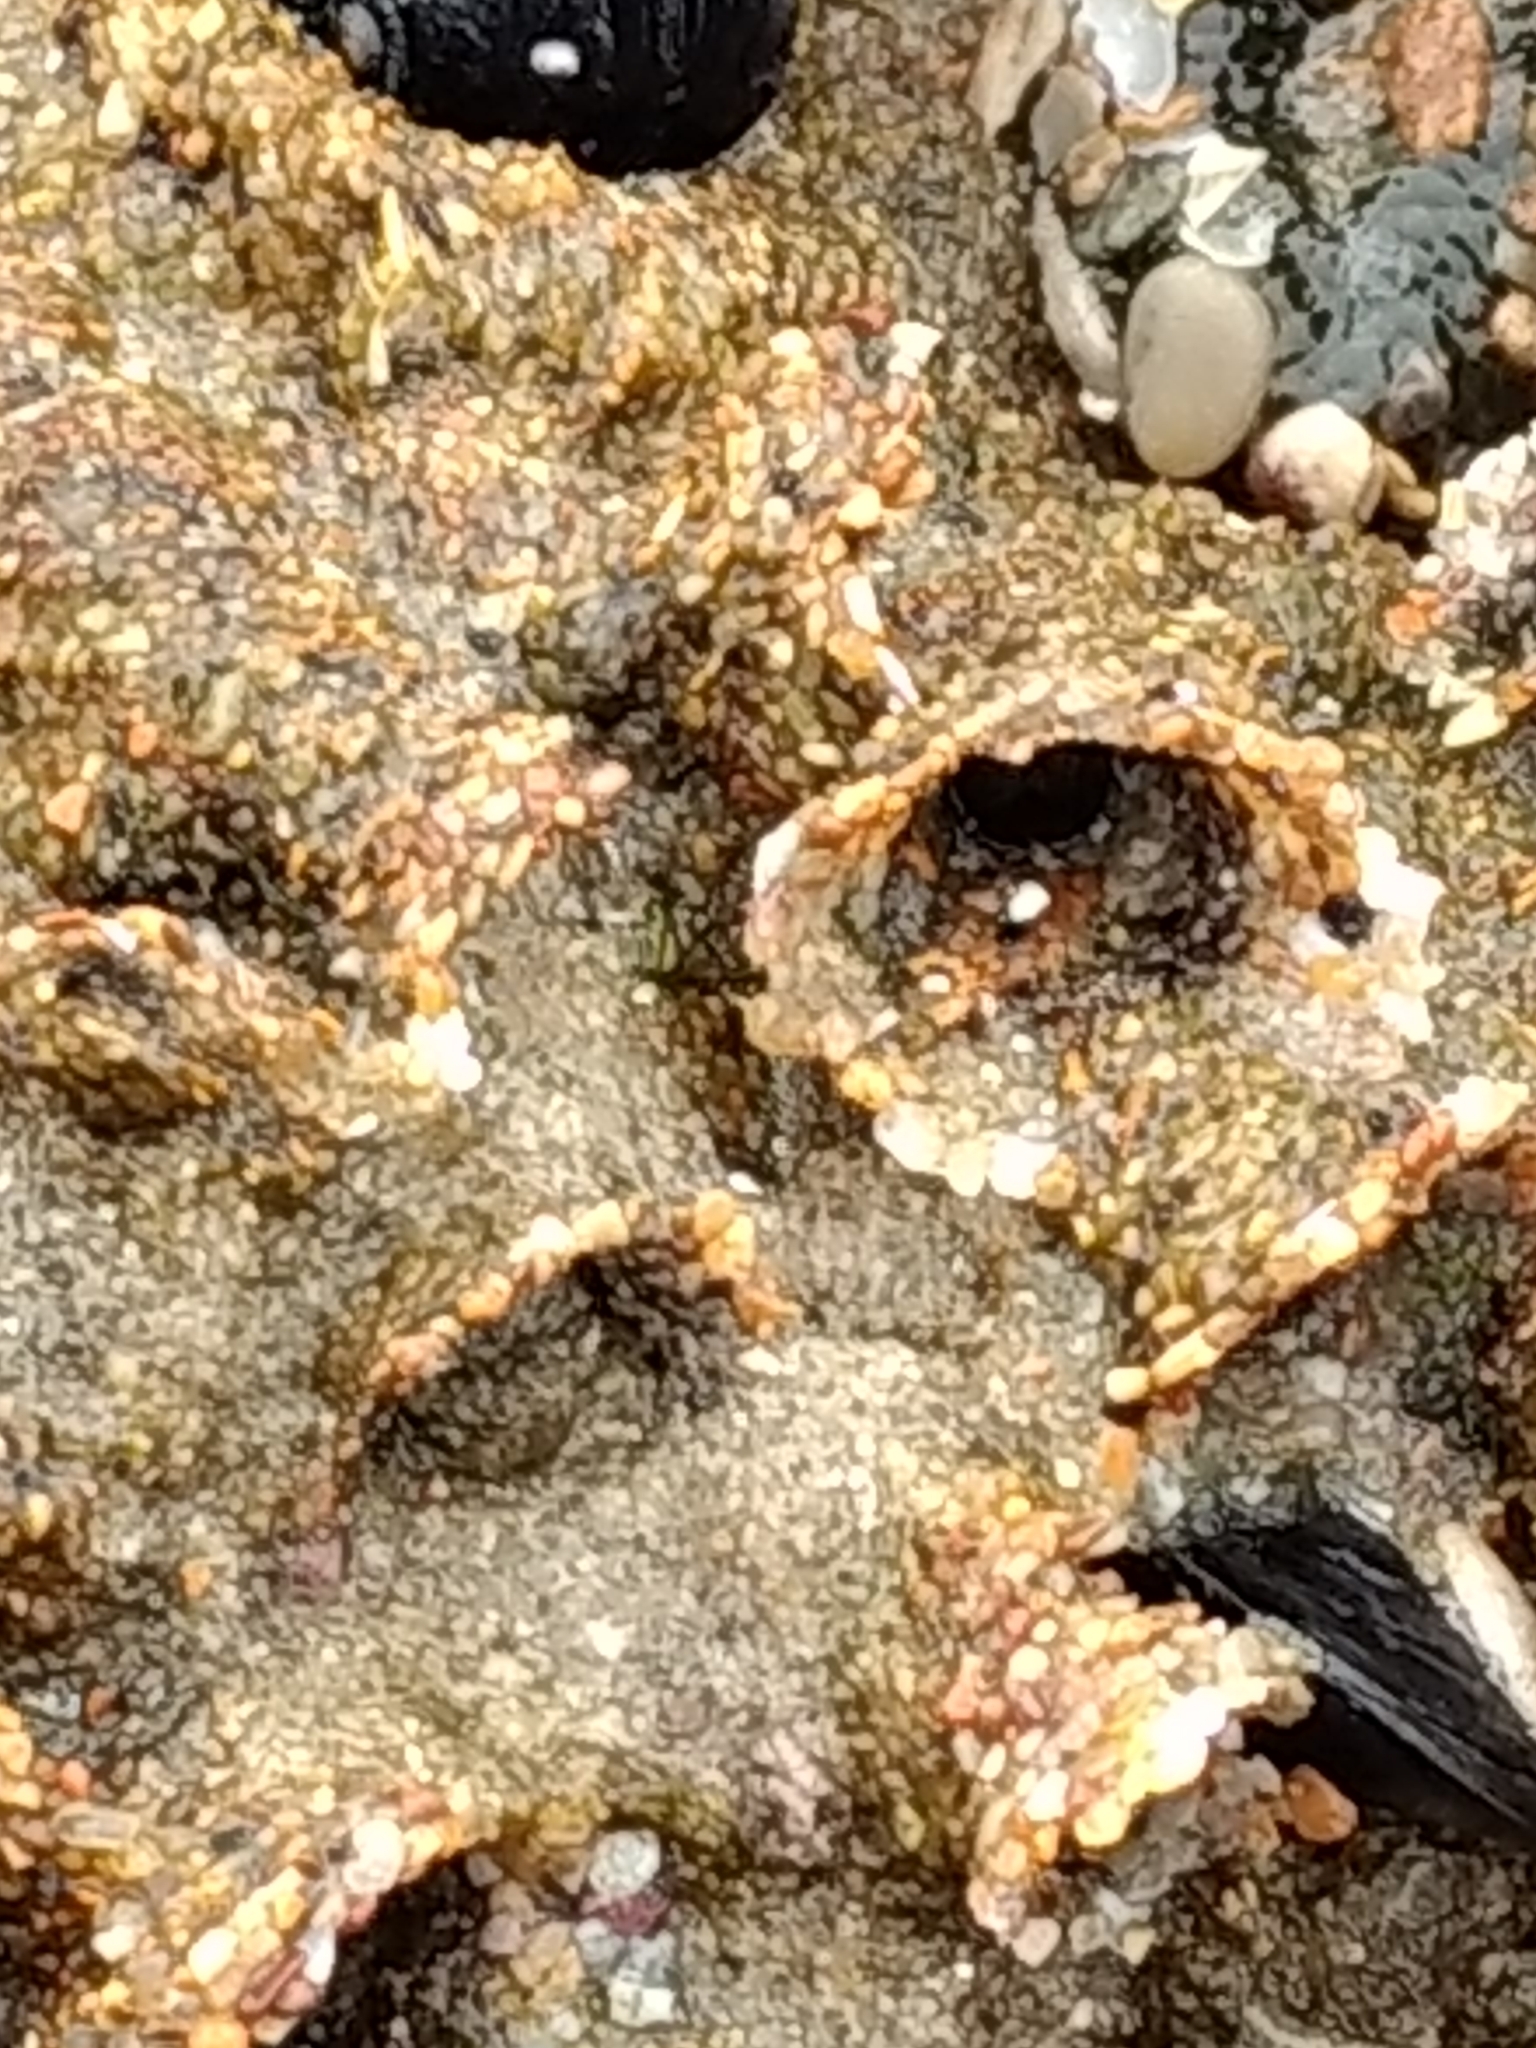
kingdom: Animalia
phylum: Annelida
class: Polychaeta
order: Sabellida
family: Sabellariidae
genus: Phragmatopoma
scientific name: Phragmatopoma californica
